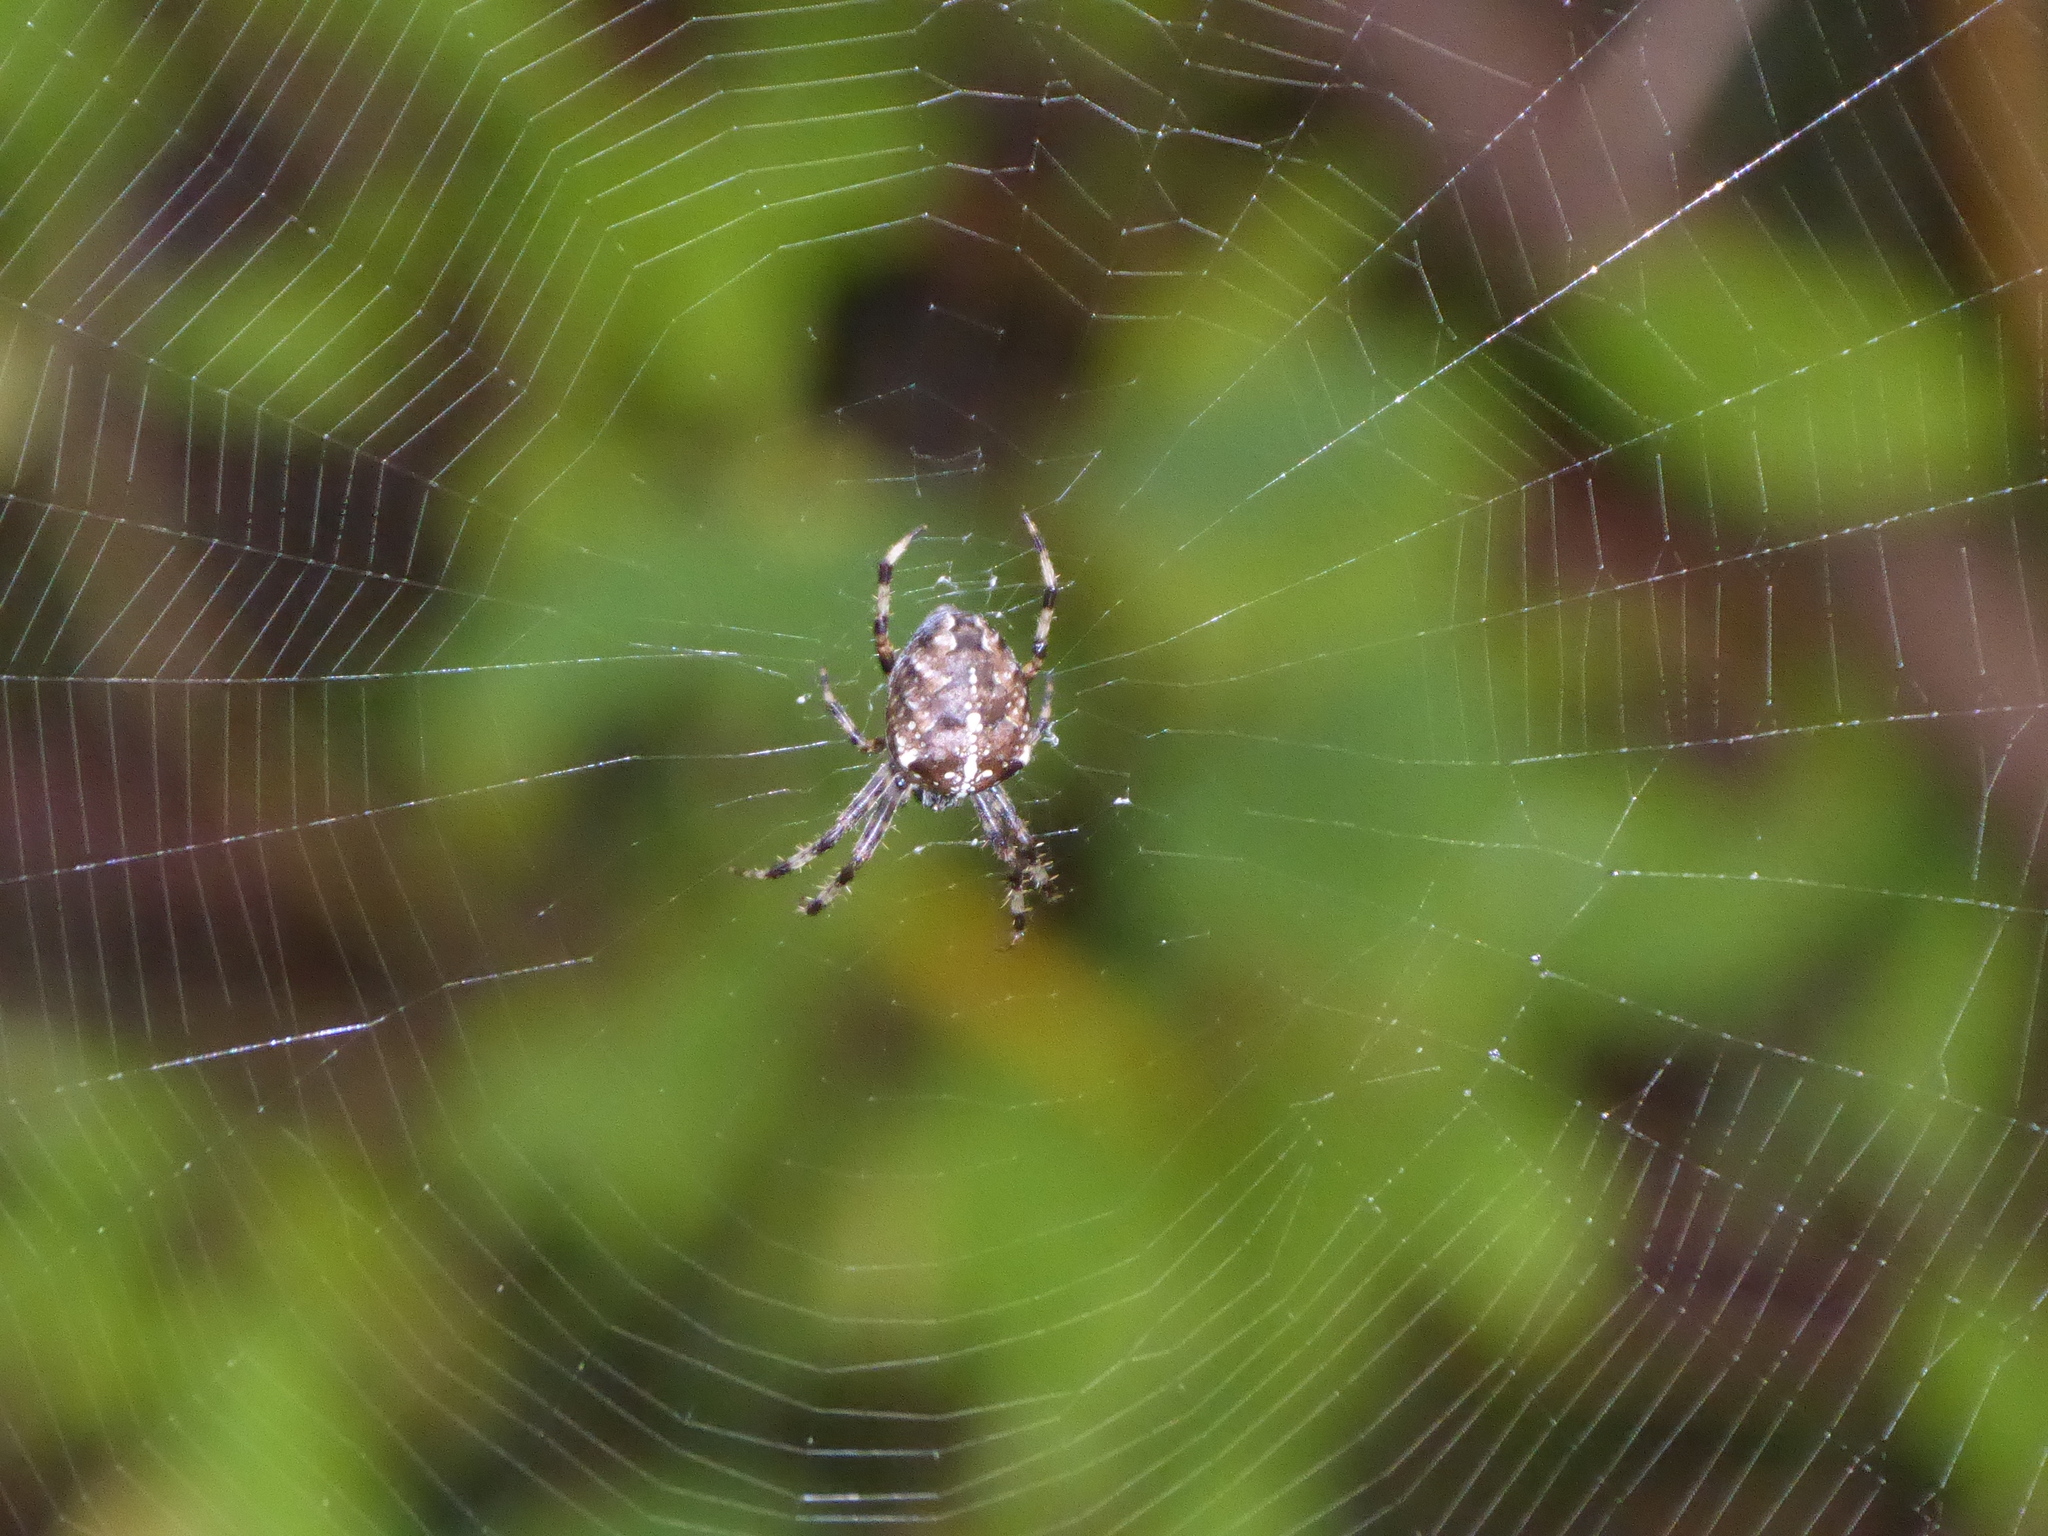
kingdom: Animalia
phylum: Arthropoda
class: Arachnida
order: Araneae
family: Araneidae
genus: Araneus
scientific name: Araneus diadematus
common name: Cross orbweaver
